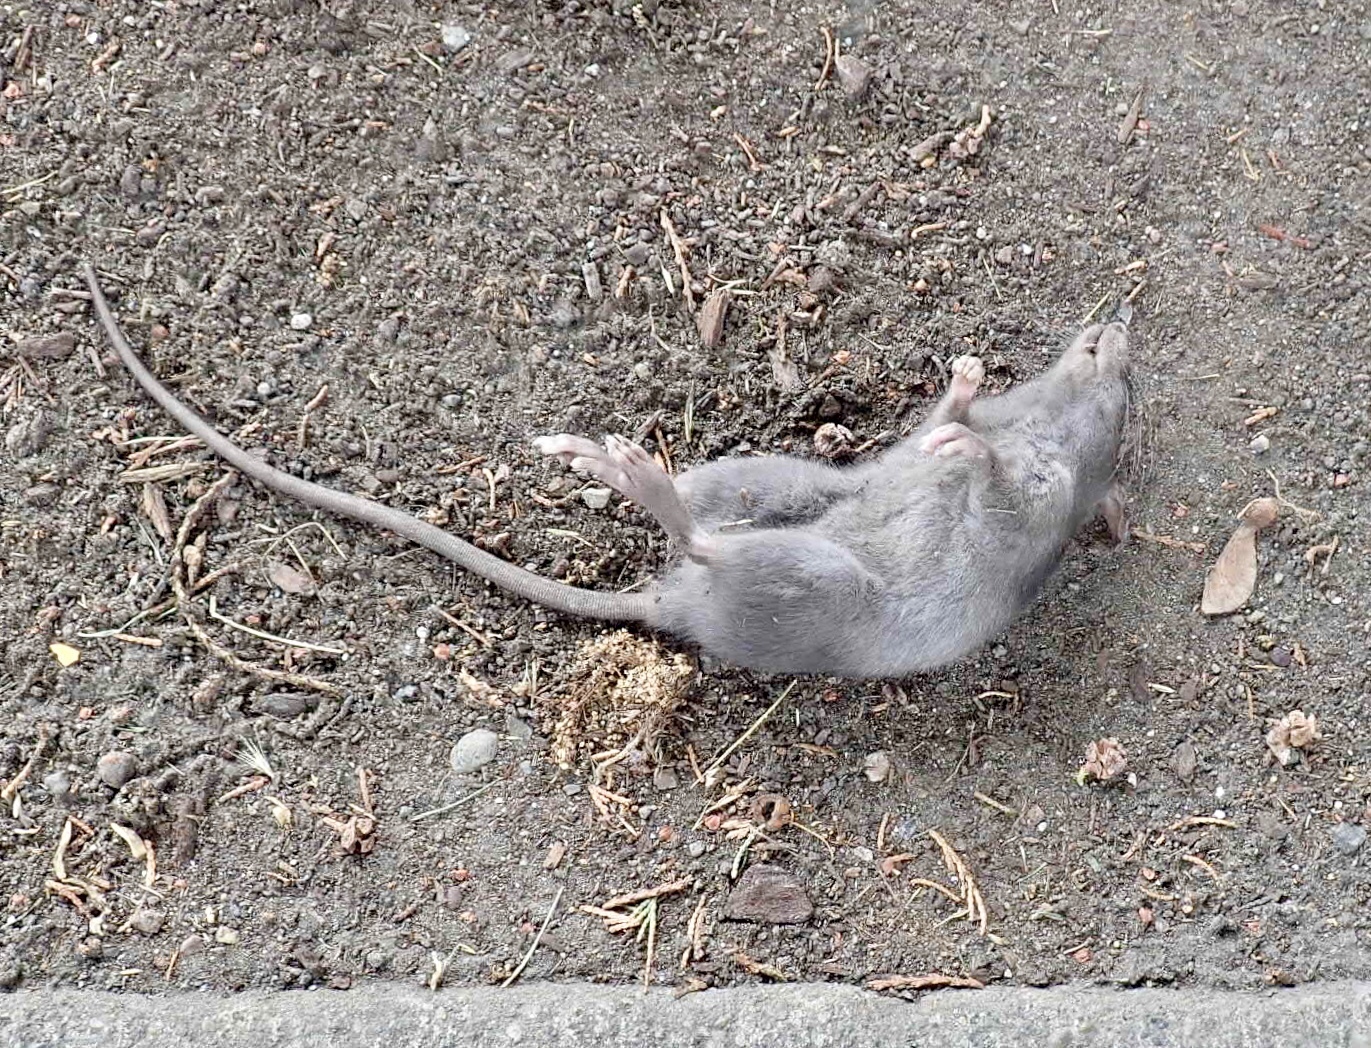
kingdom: Animalia
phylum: Chordata
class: Mammalia
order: Rodentia
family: Muridae
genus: Rattus
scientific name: Rattus rattus
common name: Black rat
